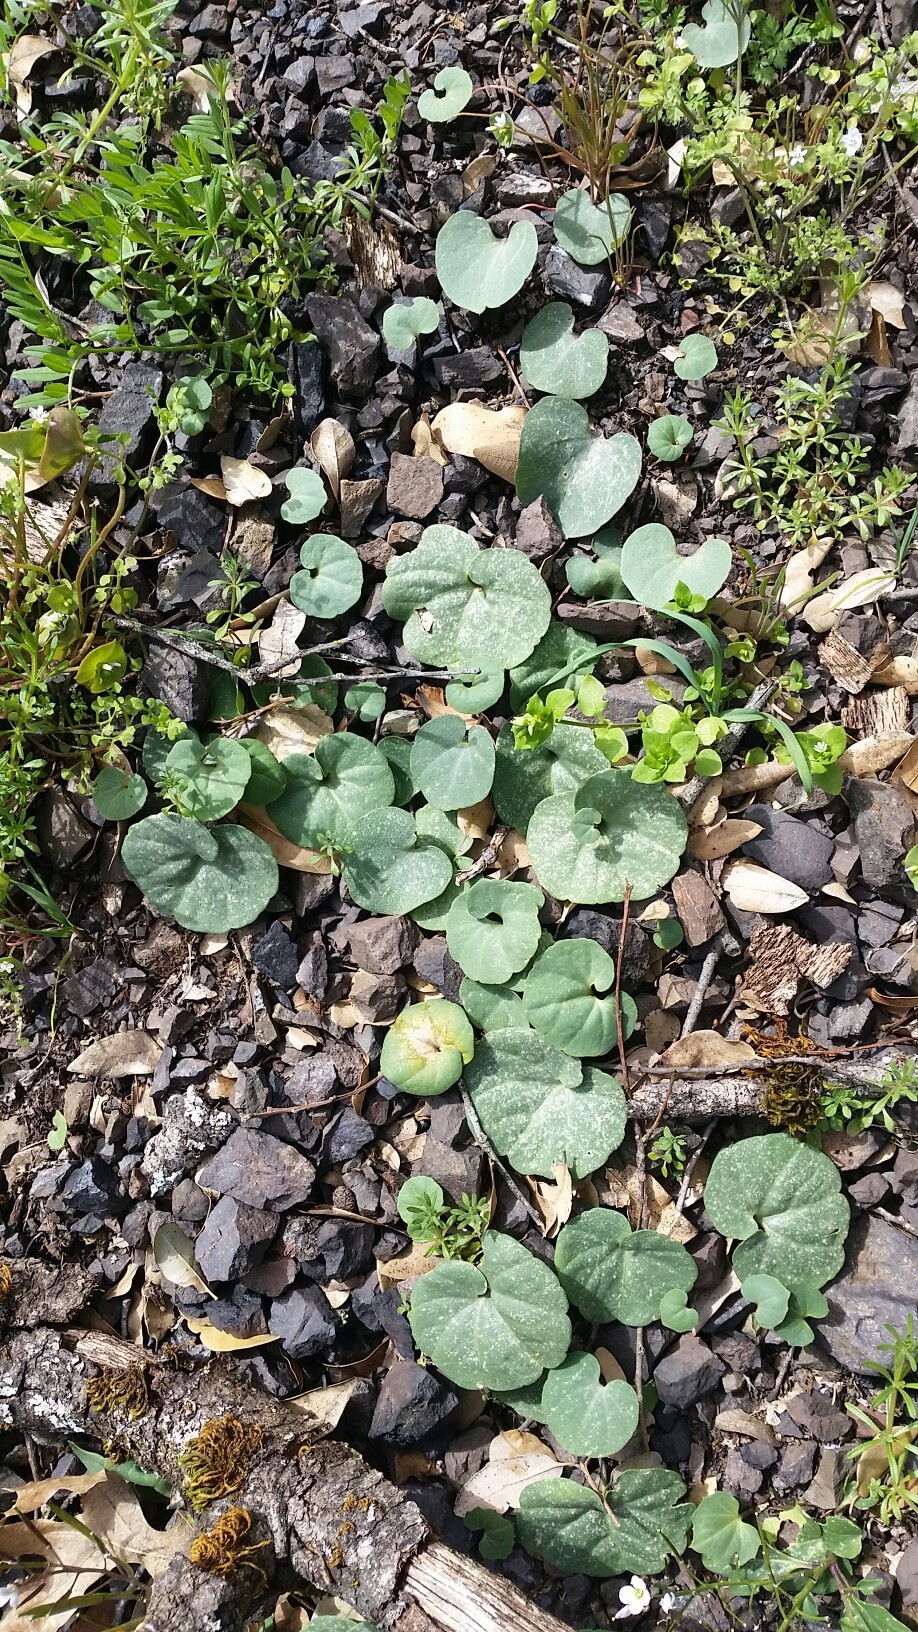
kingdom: Plantae
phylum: Tracheophyta
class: Magnoliopsida
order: Brassicales
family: Brassicaceae
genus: Cardamine
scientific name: Cardamine californica
